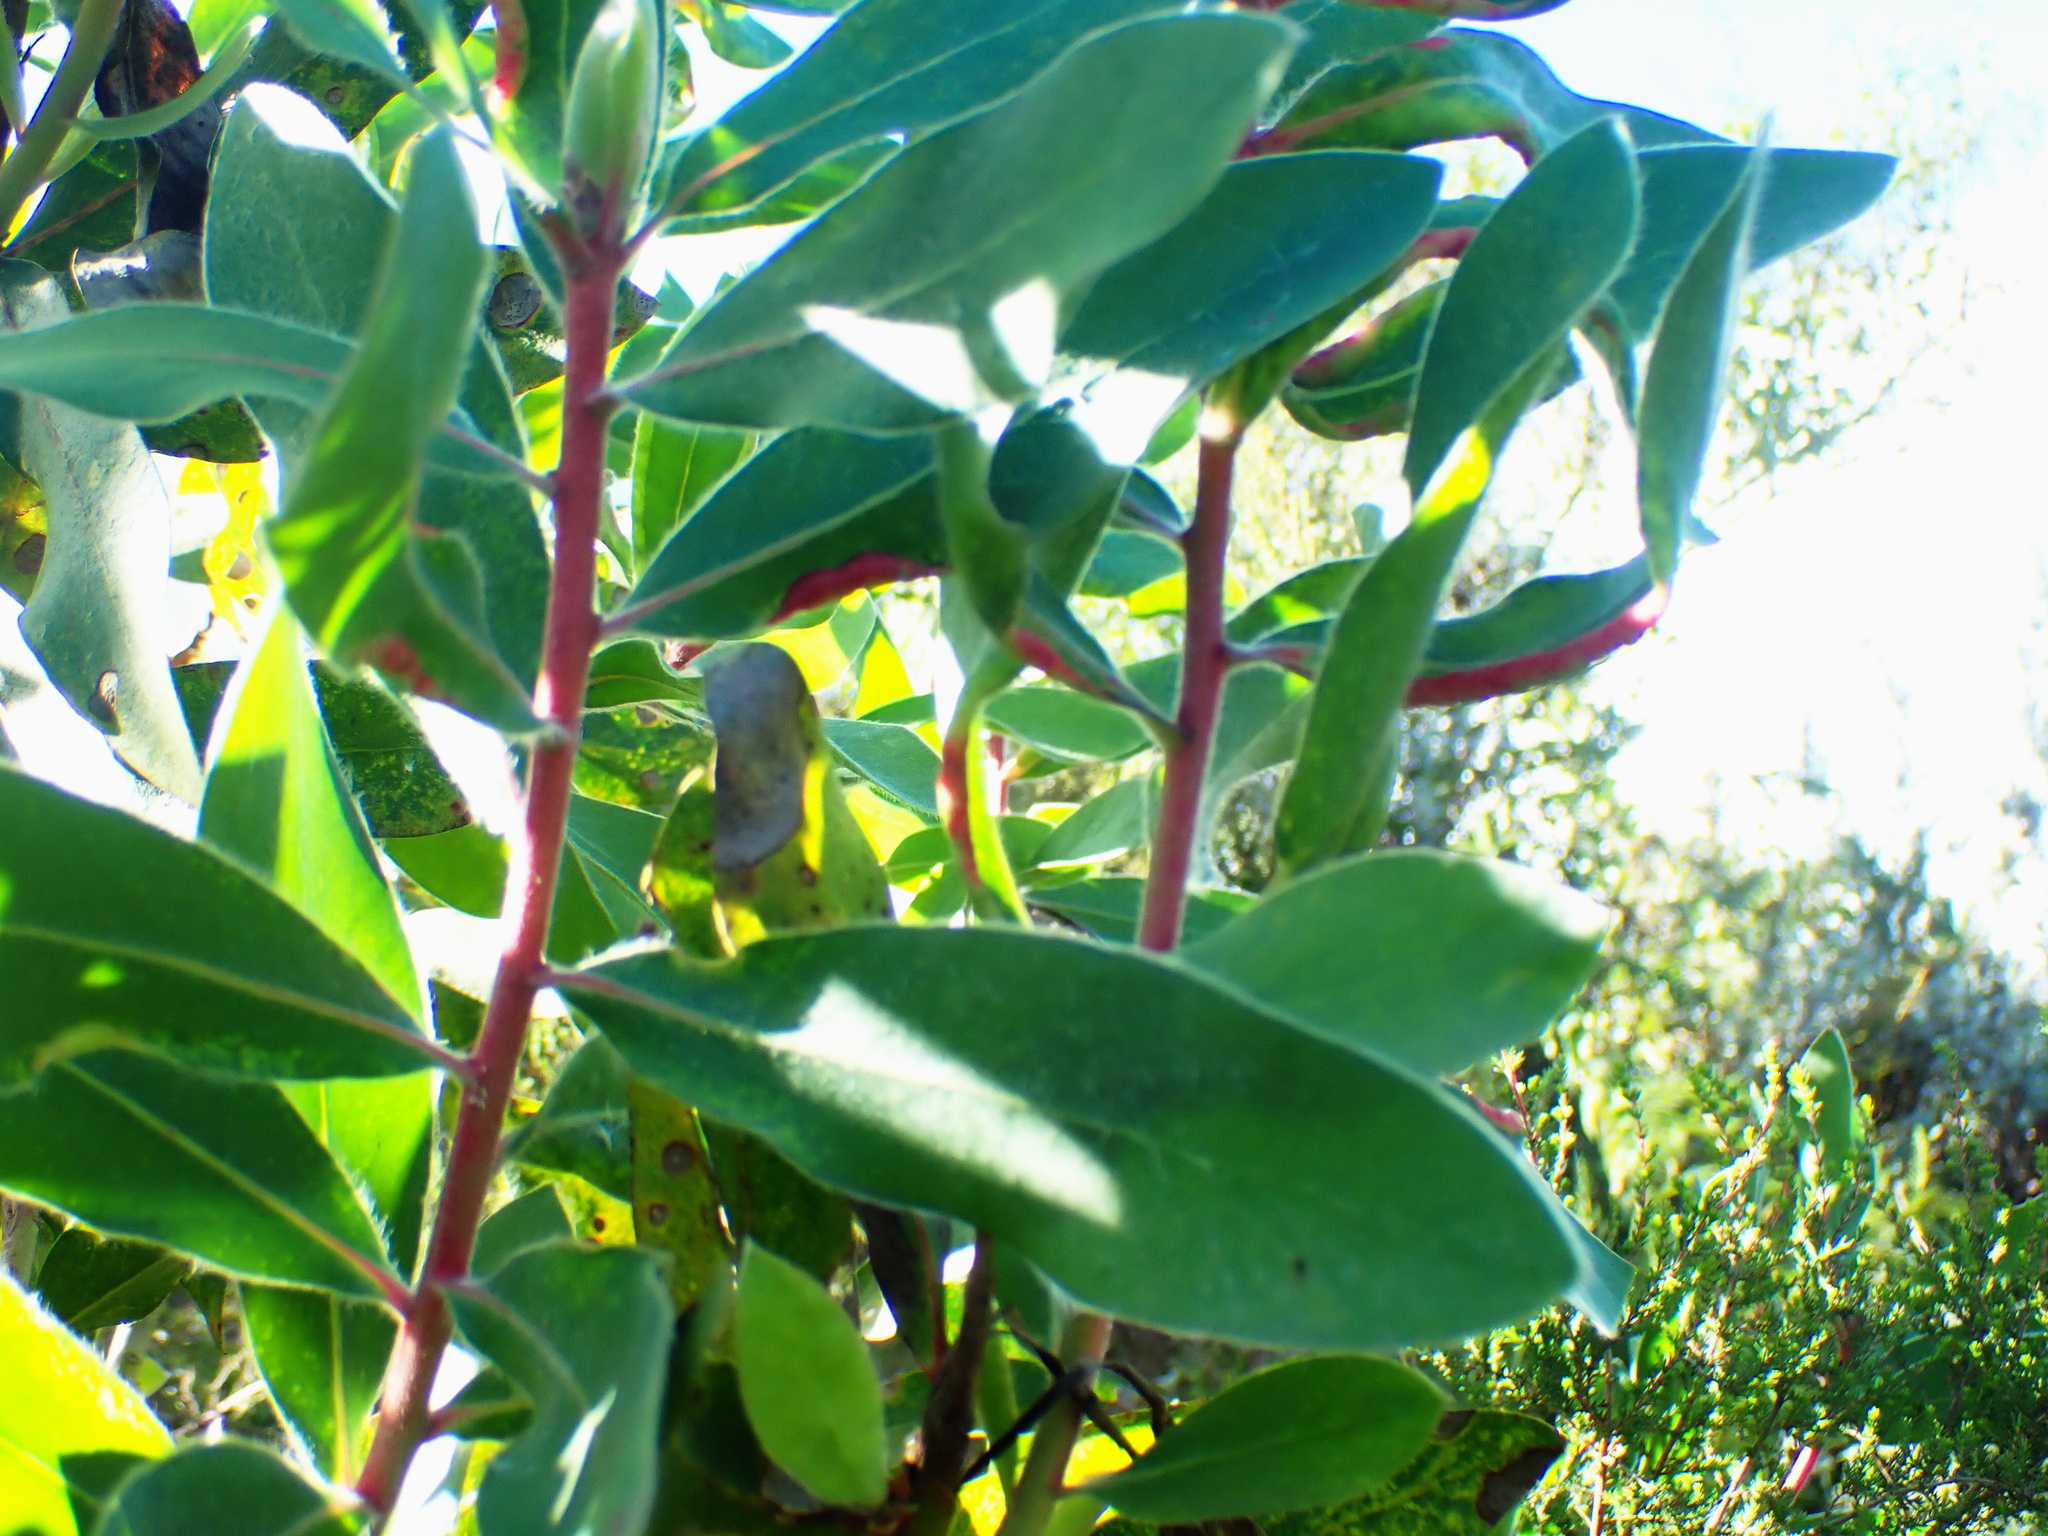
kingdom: Plantae
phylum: Tracheophyta
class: Magnoliopsida
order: Proteales
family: Proteaceae
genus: Protea
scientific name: Protea mundii
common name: Forest sugarbush
